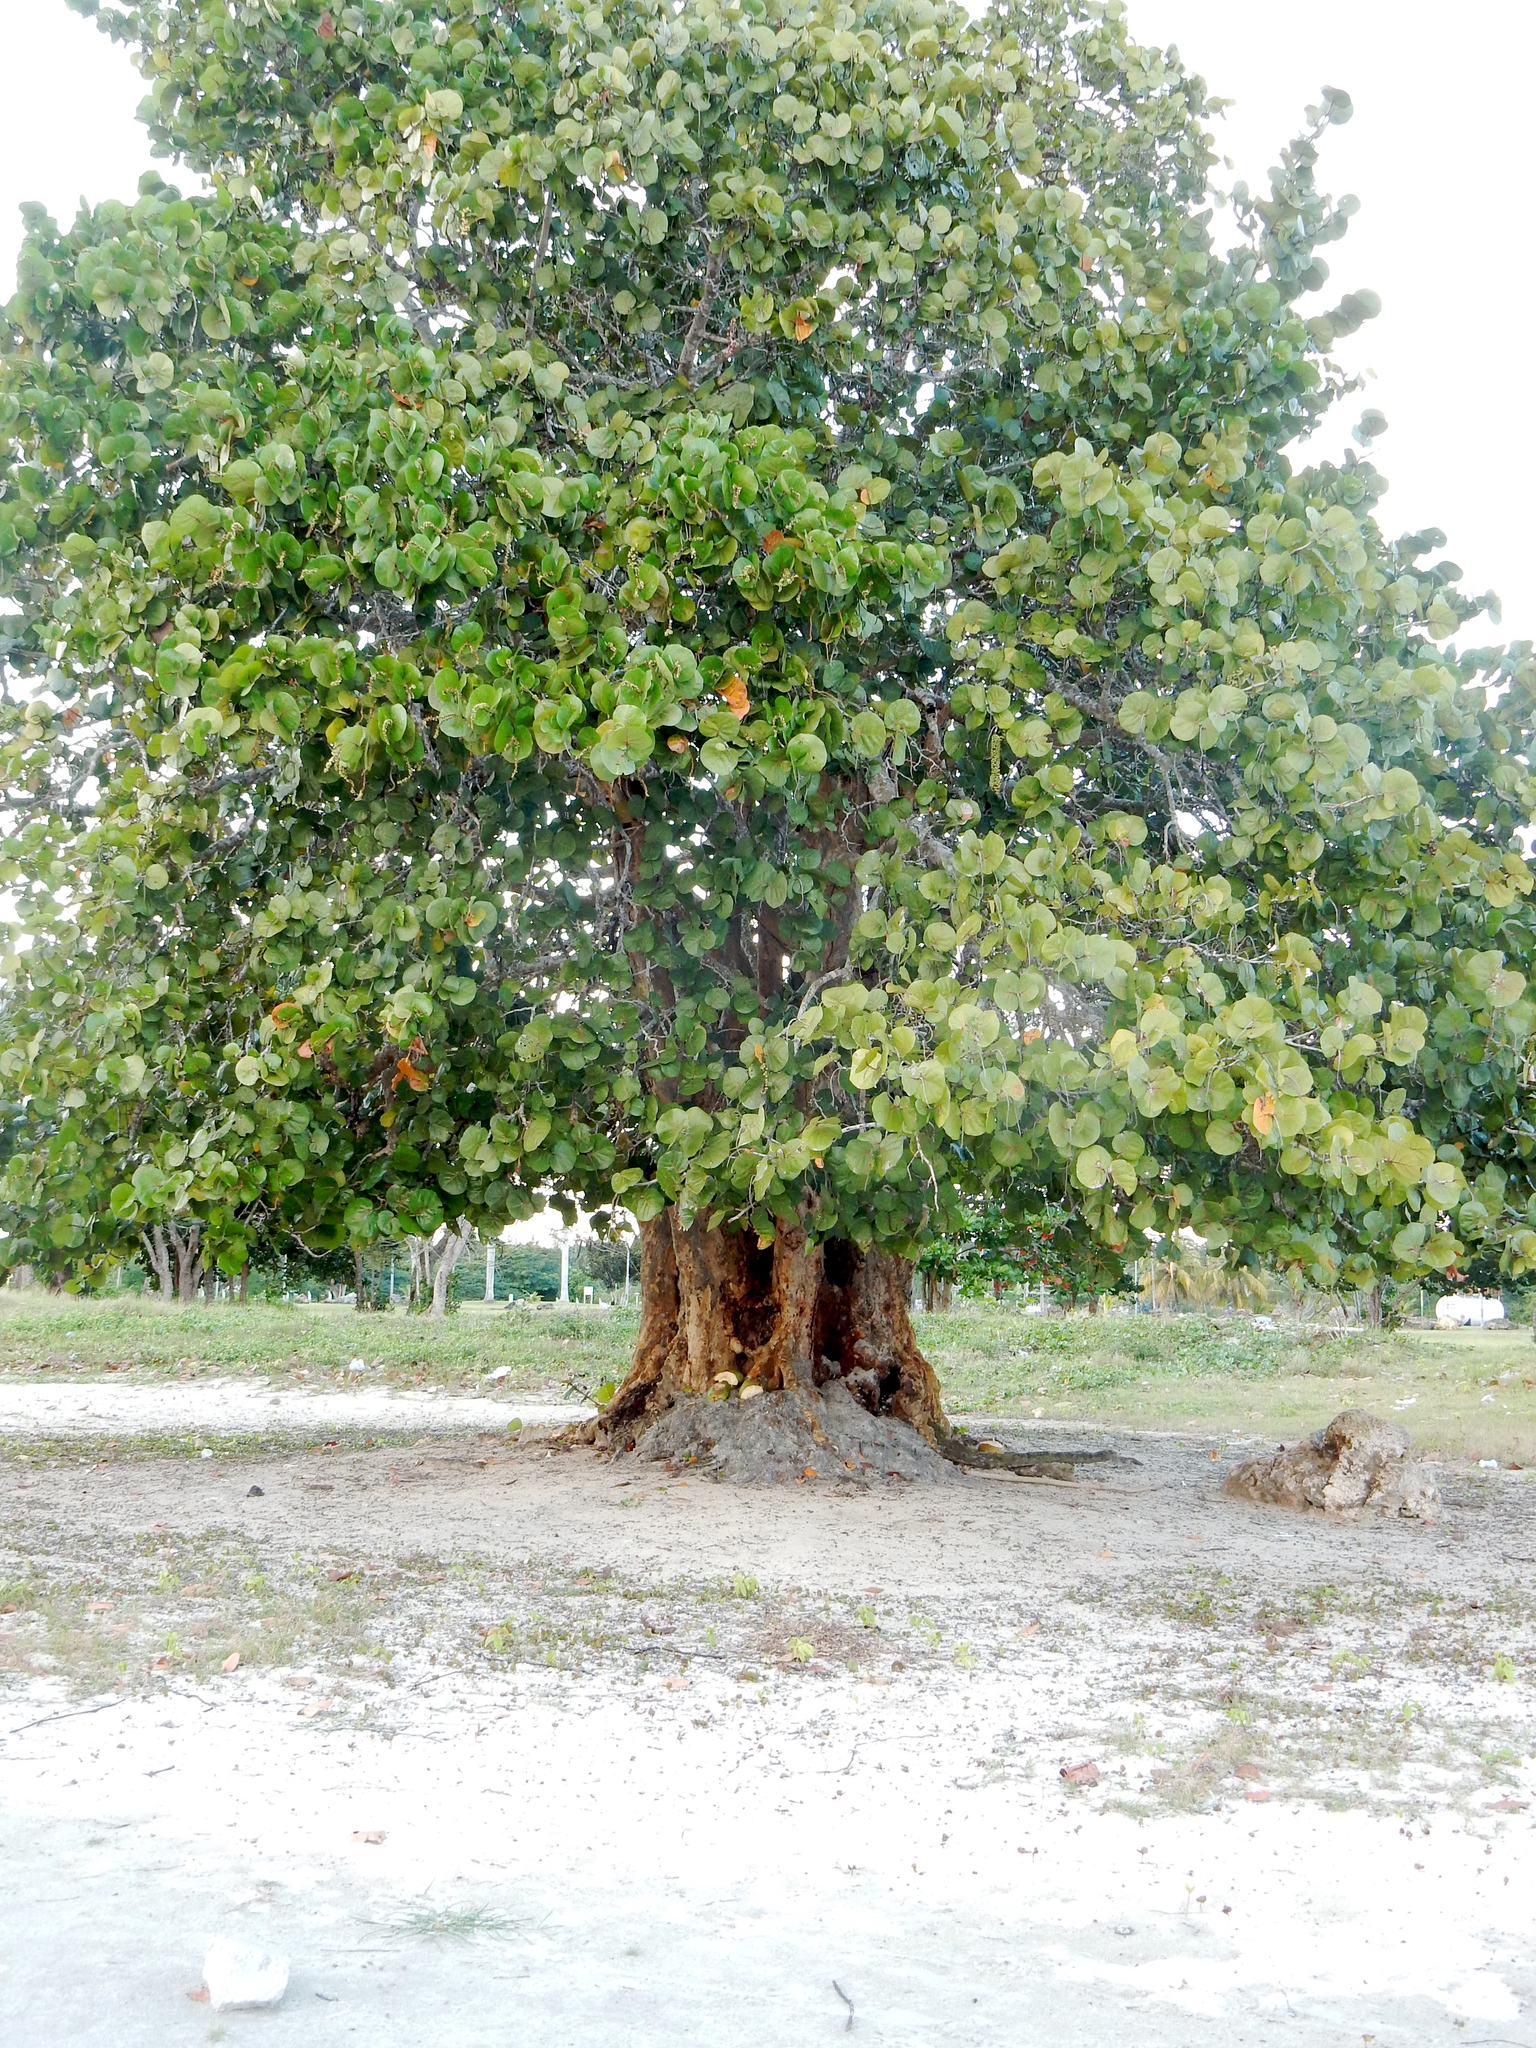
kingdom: Plantae
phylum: Tracheophyta
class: Magnoliopsida
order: Caryophyllales
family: Polygonaceae
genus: Coccoloba
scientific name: Coccoloba uvifera
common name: Seagrape
